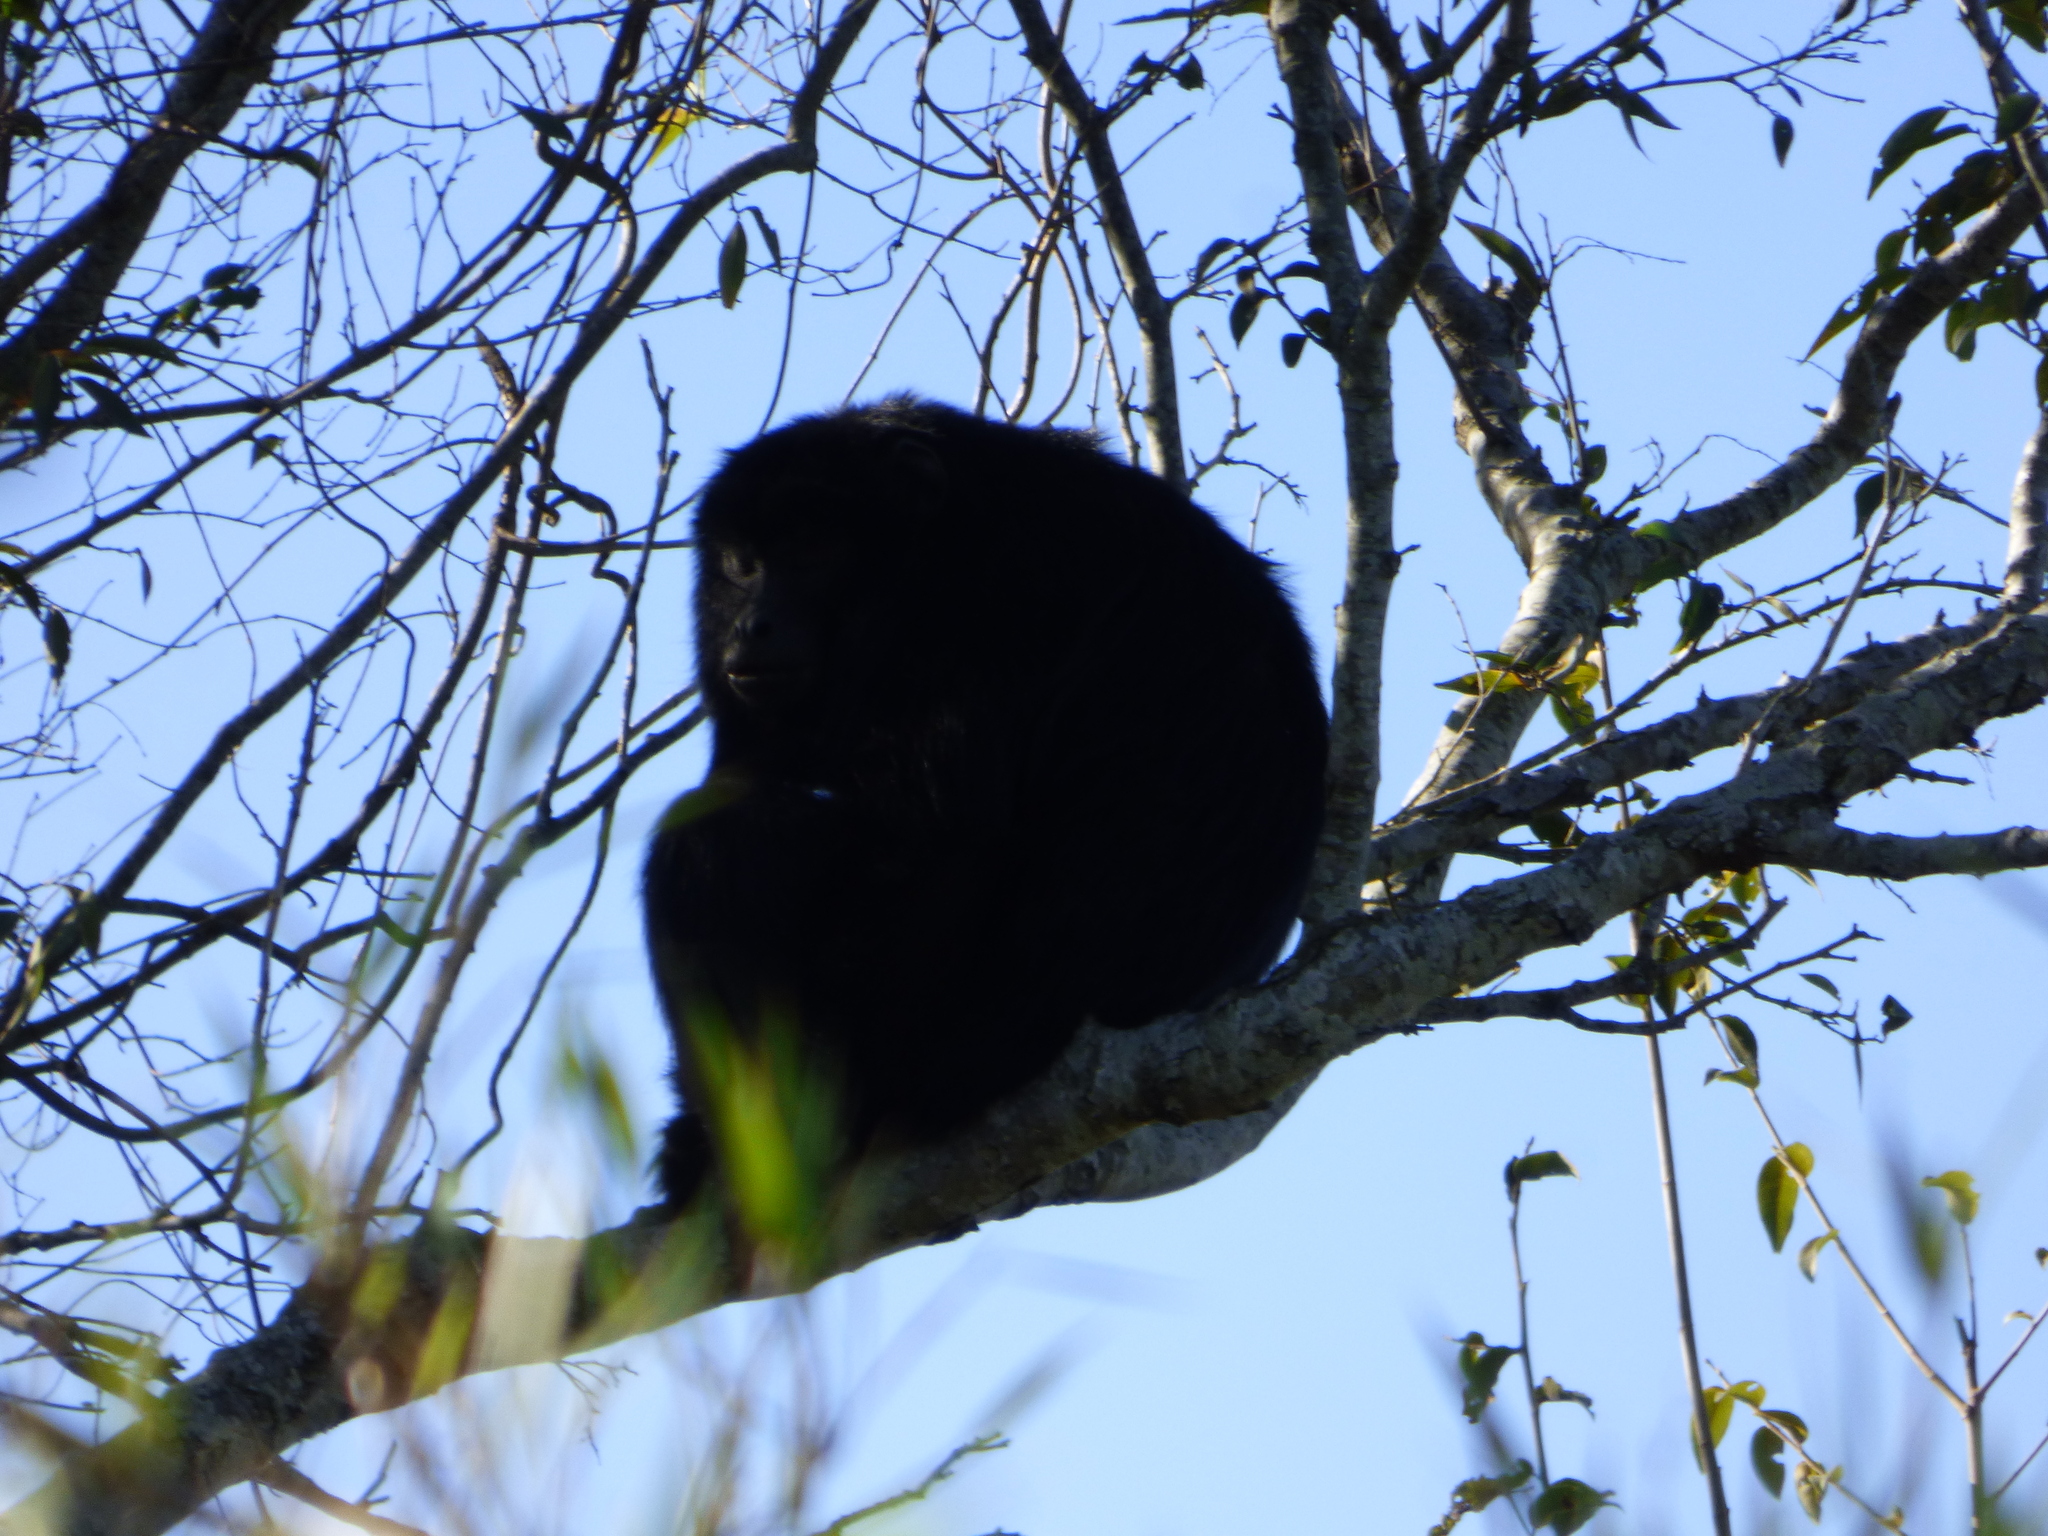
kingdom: Animalia
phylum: Chordata
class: Mammalia
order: Primates
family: Atelidae
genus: Alouatta
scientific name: Alouatta caraya
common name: Black howler
